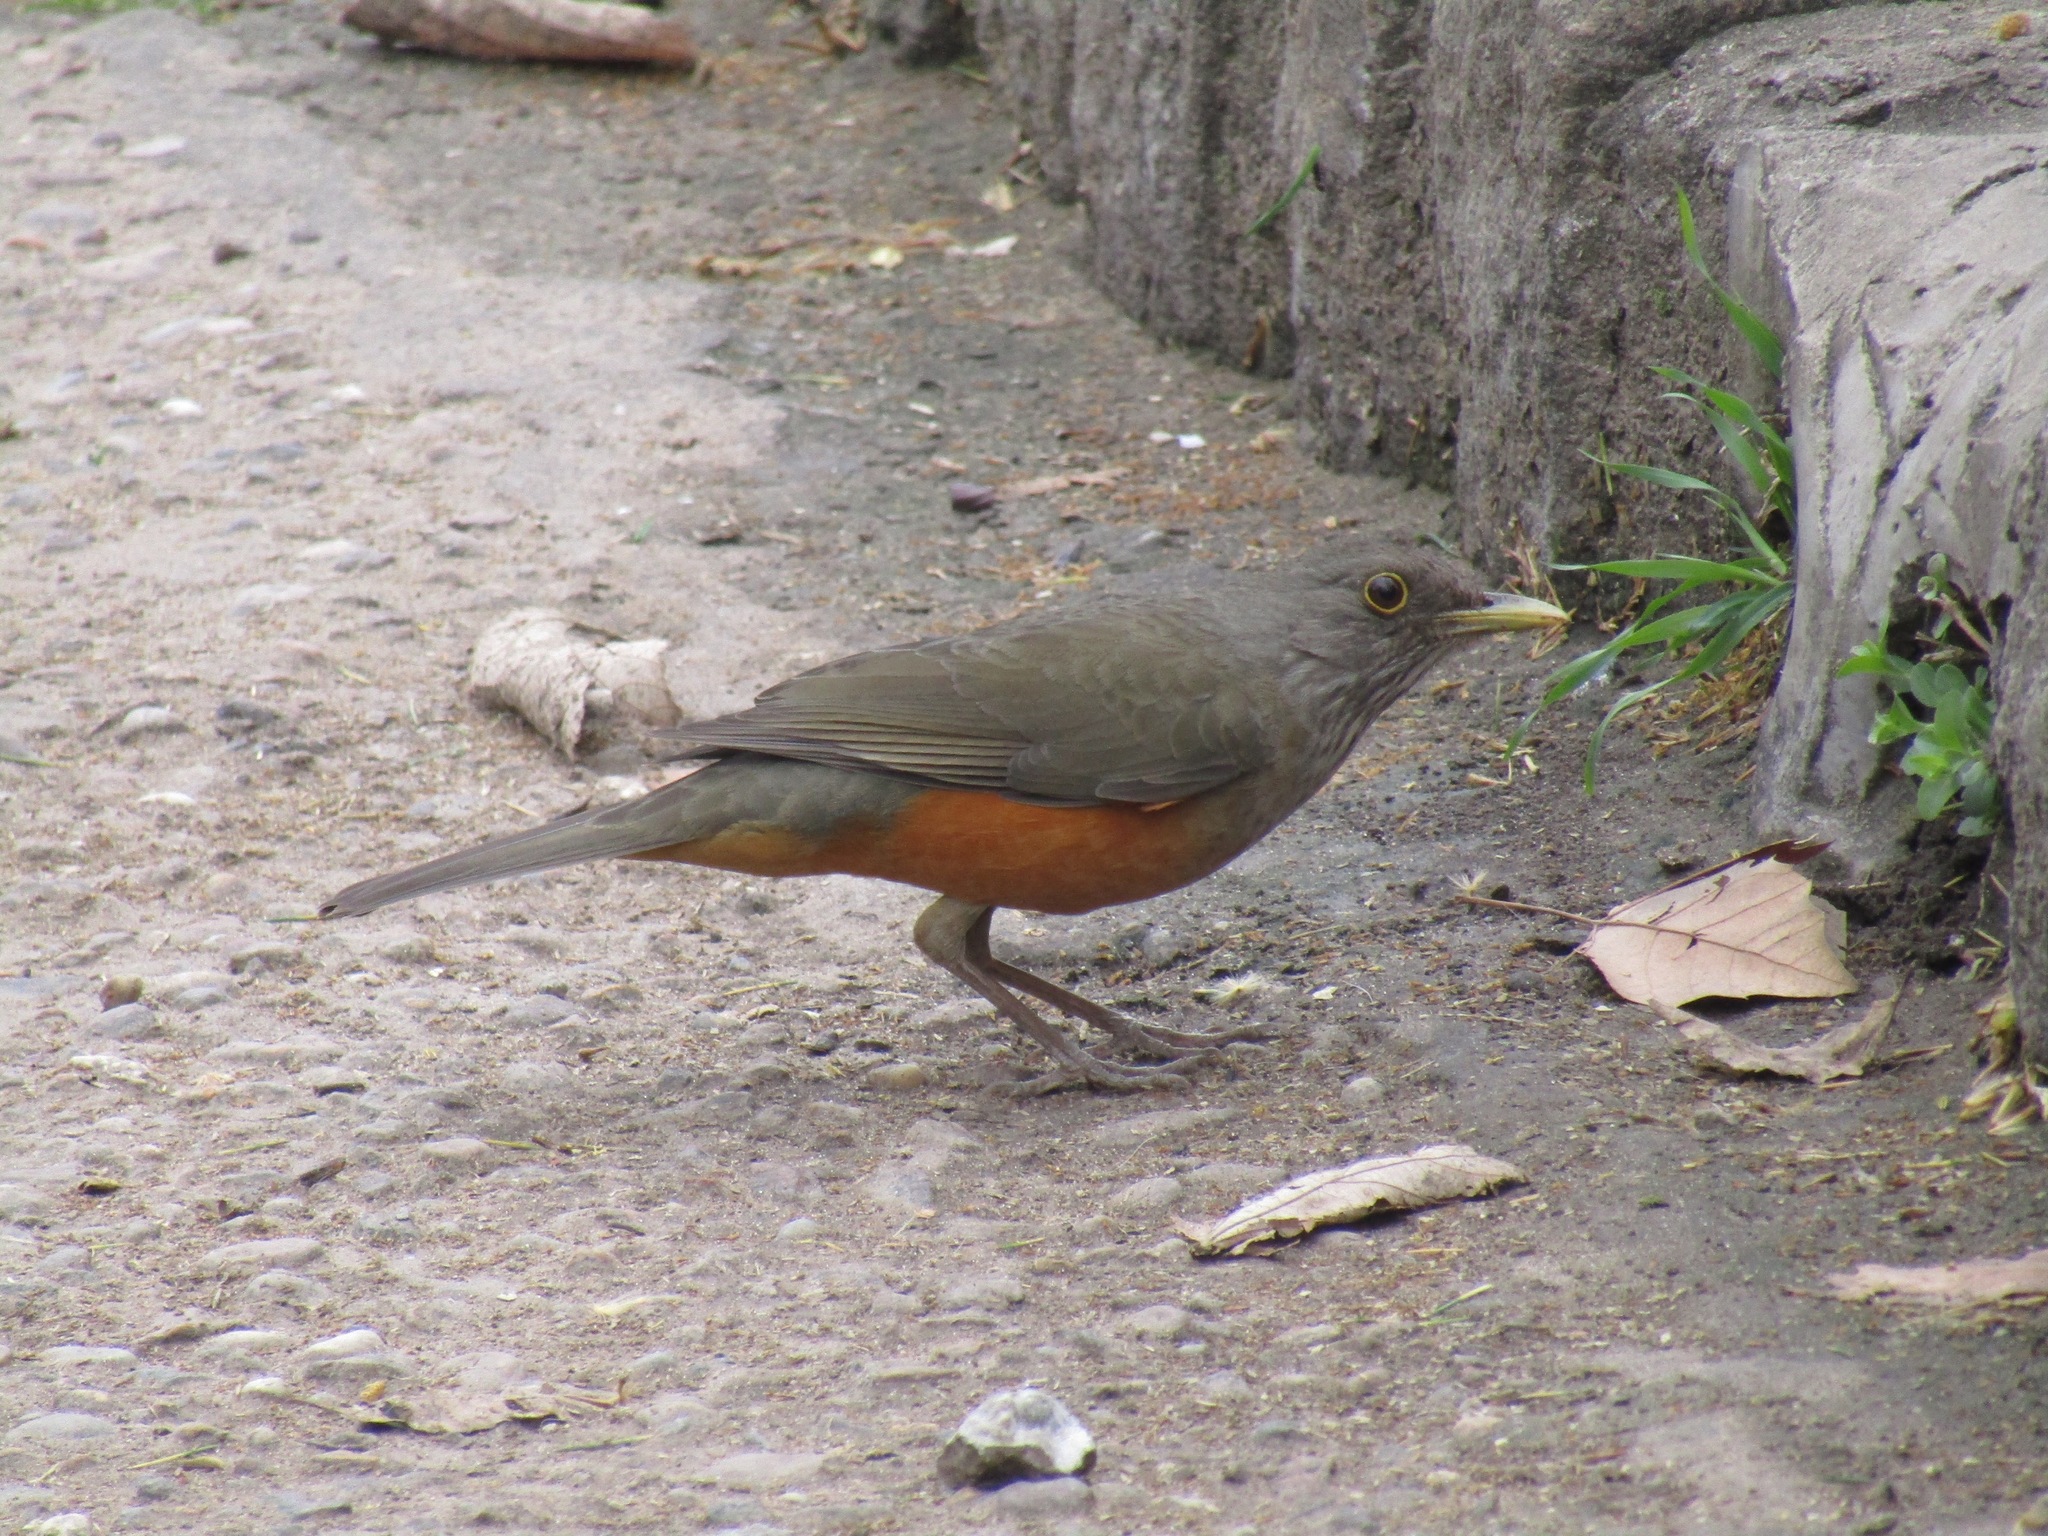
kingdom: Animalia
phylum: Chordata
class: Aves
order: Passeriformes
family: Turdidae
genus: Turdus
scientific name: Turdus rufiventris
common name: Rufous-bellied thrush
